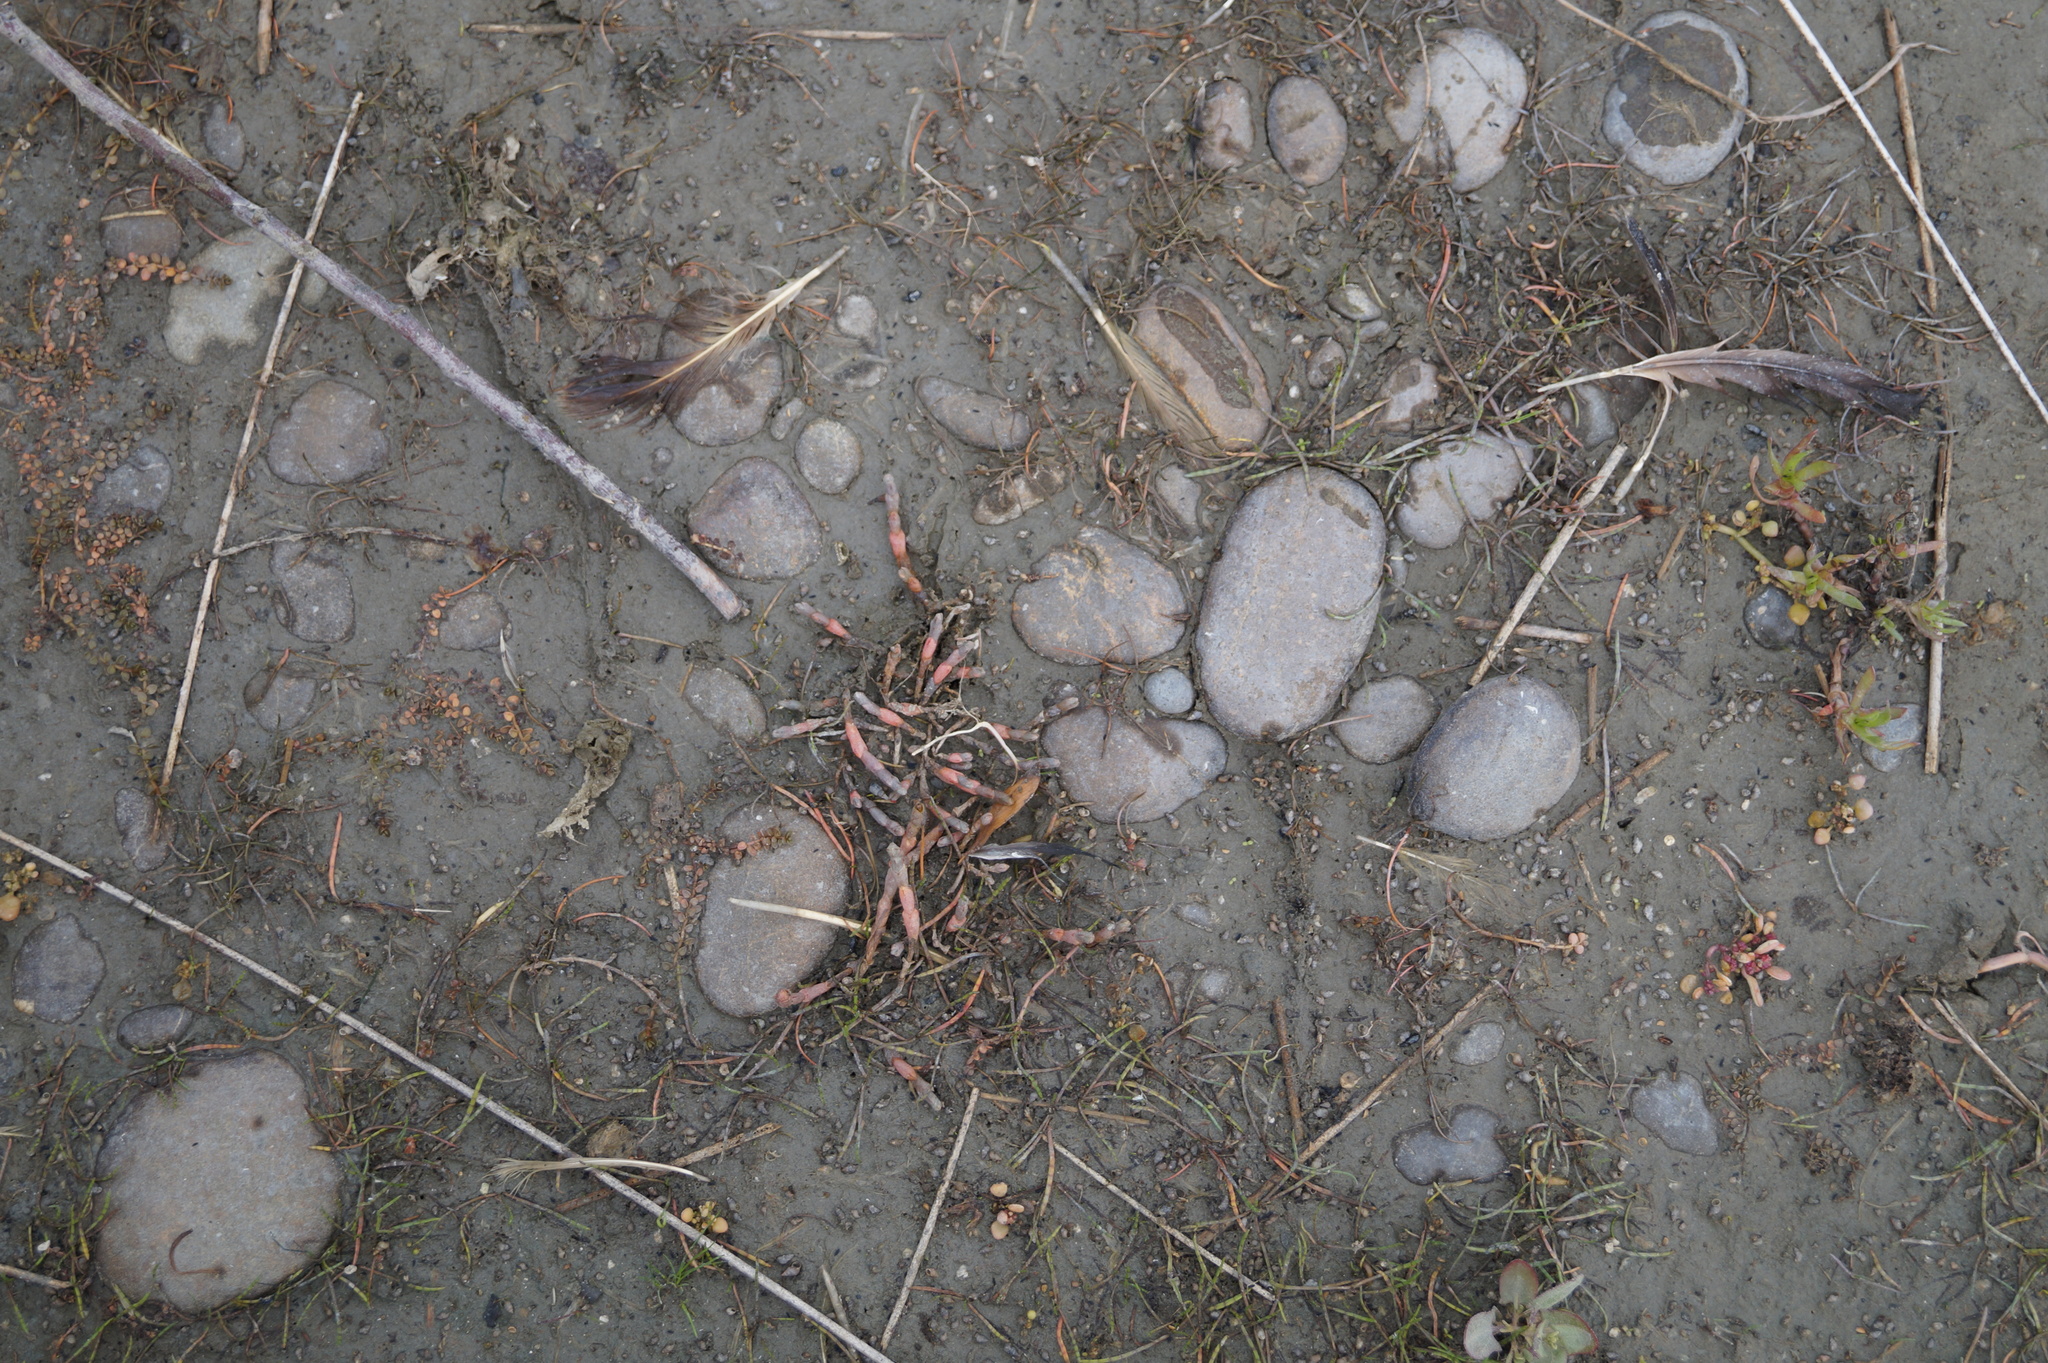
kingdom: Plantae
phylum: Tracheophyta
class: Magnoliopsida
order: Caryophyllales
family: Amaranthaceae
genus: Salicornia
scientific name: Salicornia quinqueflora
